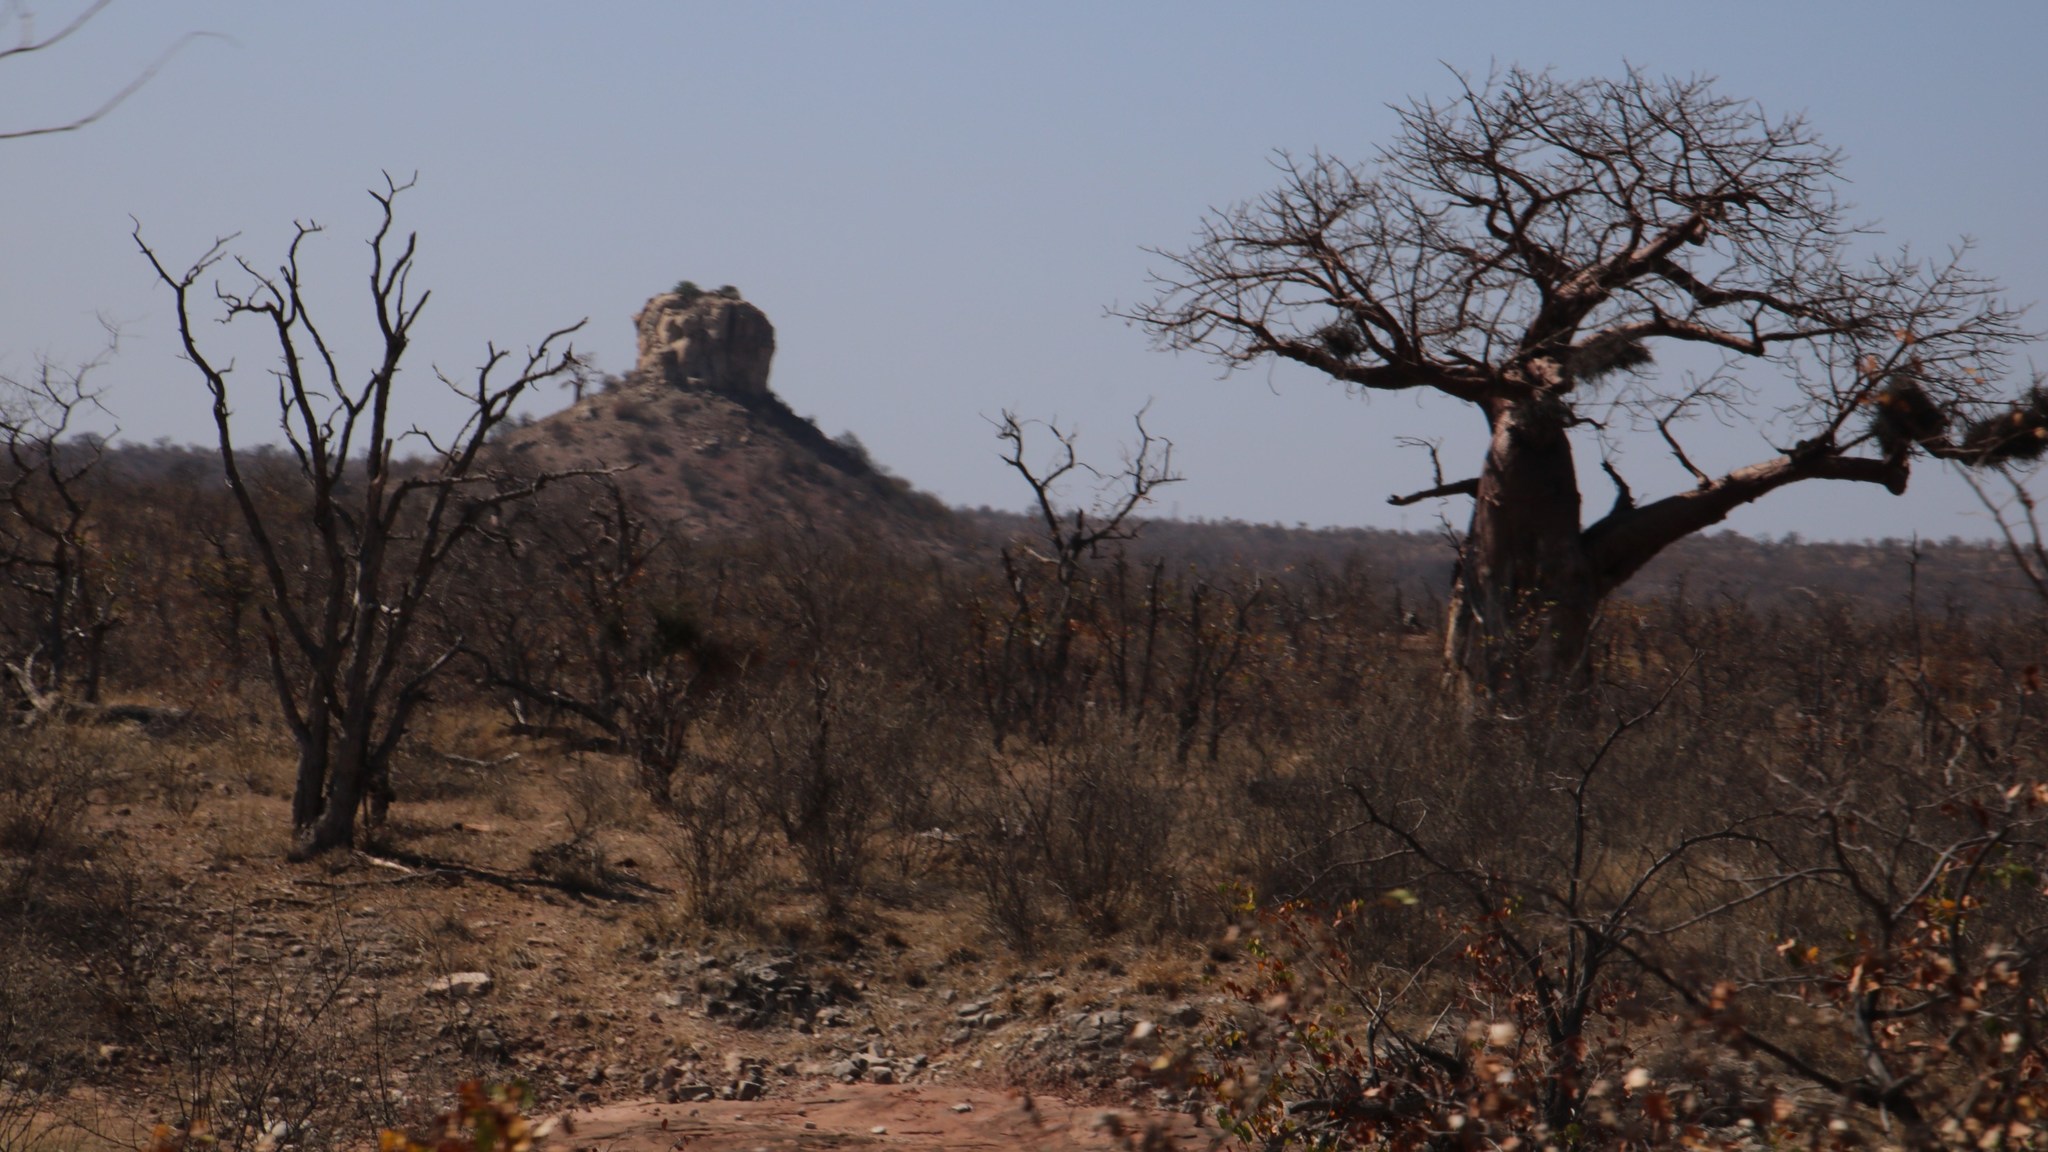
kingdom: Plantae
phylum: Tracheophyta
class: Magnoliopsida
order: Malvales
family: Malvaceae
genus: Adansonia
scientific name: Adansonia digitata
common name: Dead-rat-tree
